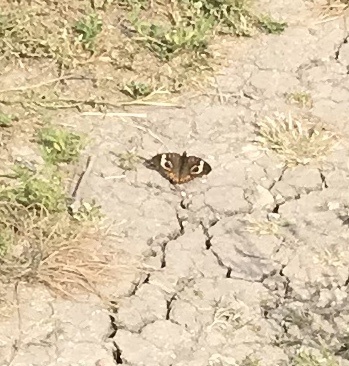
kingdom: Animalia
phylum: Arthropoda
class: Insecta
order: Lepidoptera
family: Nymphalidae
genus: Junonia
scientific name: Junonia coenia
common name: Common buckeye
